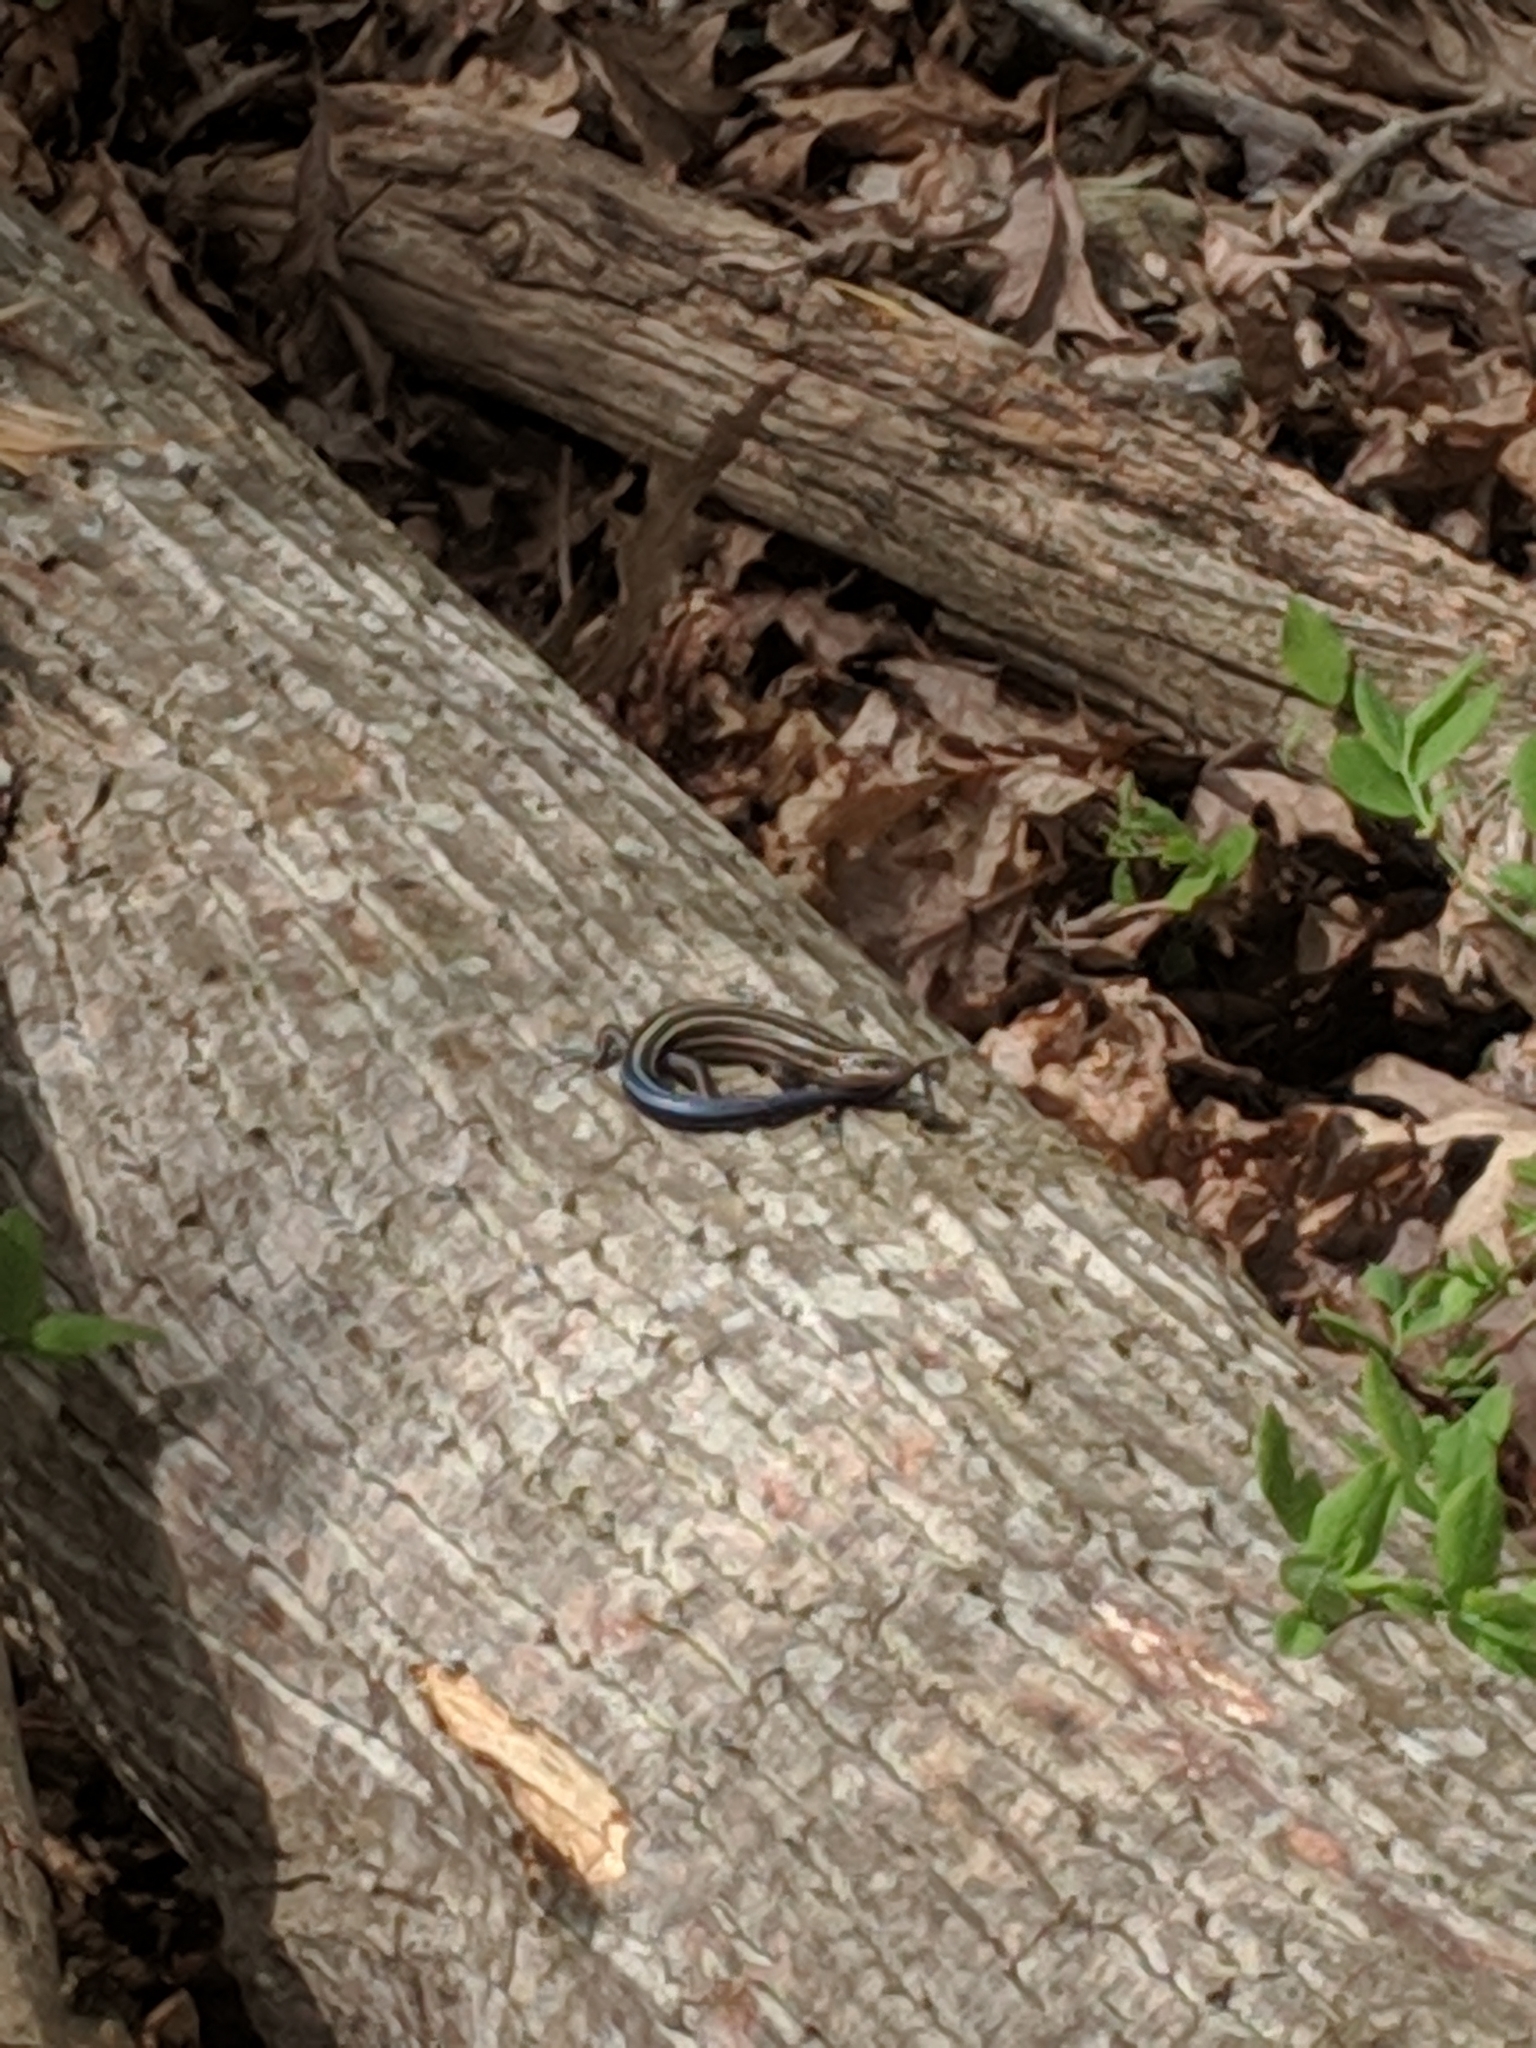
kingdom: Animalia
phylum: Chordata
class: Squamata
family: Scincidae
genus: Plestiodon
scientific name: Plestiodon fasciatus
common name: Five-lined skink
